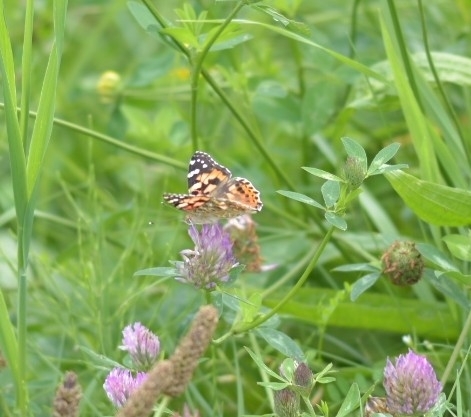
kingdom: Animalia
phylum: Arthropoda
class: Insecta
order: Lepidoptera
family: Nymphalidae
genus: Vanessa
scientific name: Vanessa cardui
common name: Painted lady
